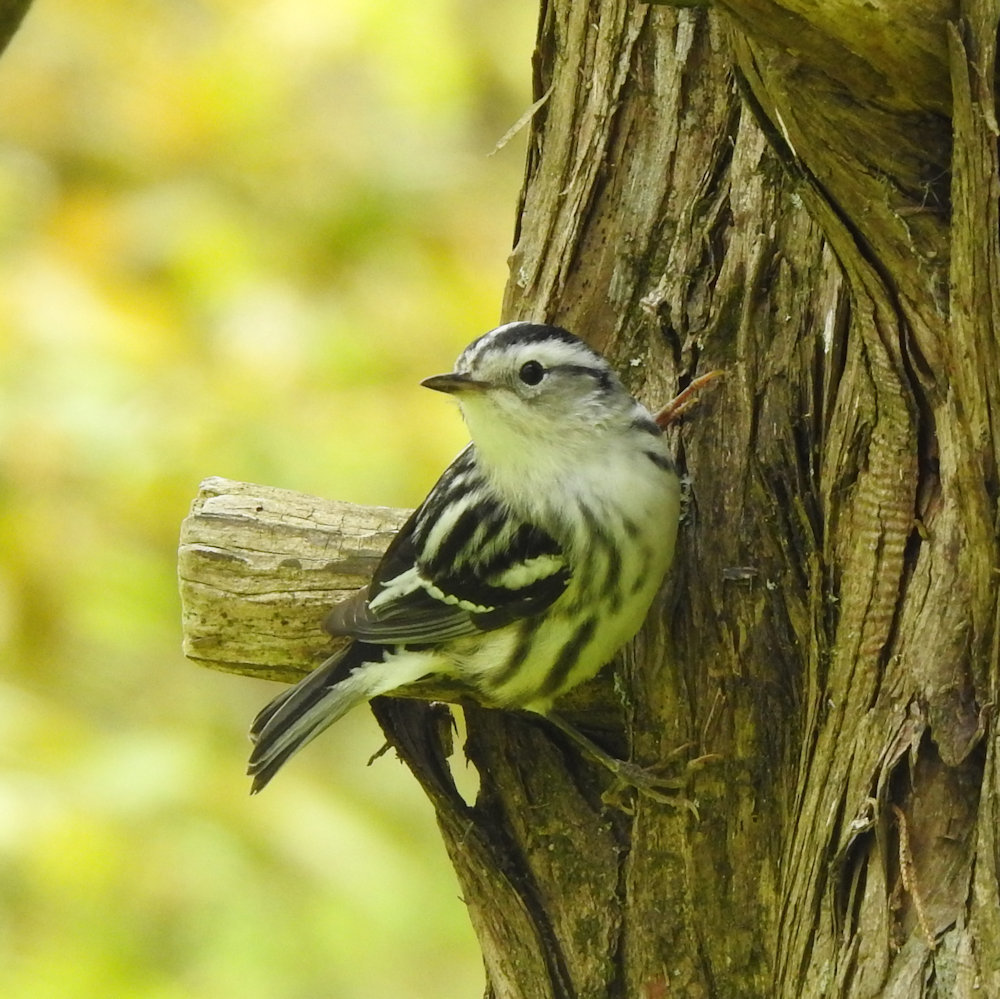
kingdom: Animalia
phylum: Chordata
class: Aves
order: Passeriformes
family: Parulidae
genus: Mniotilta
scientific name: Mniotilta varia
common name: Black-and-white warbler
